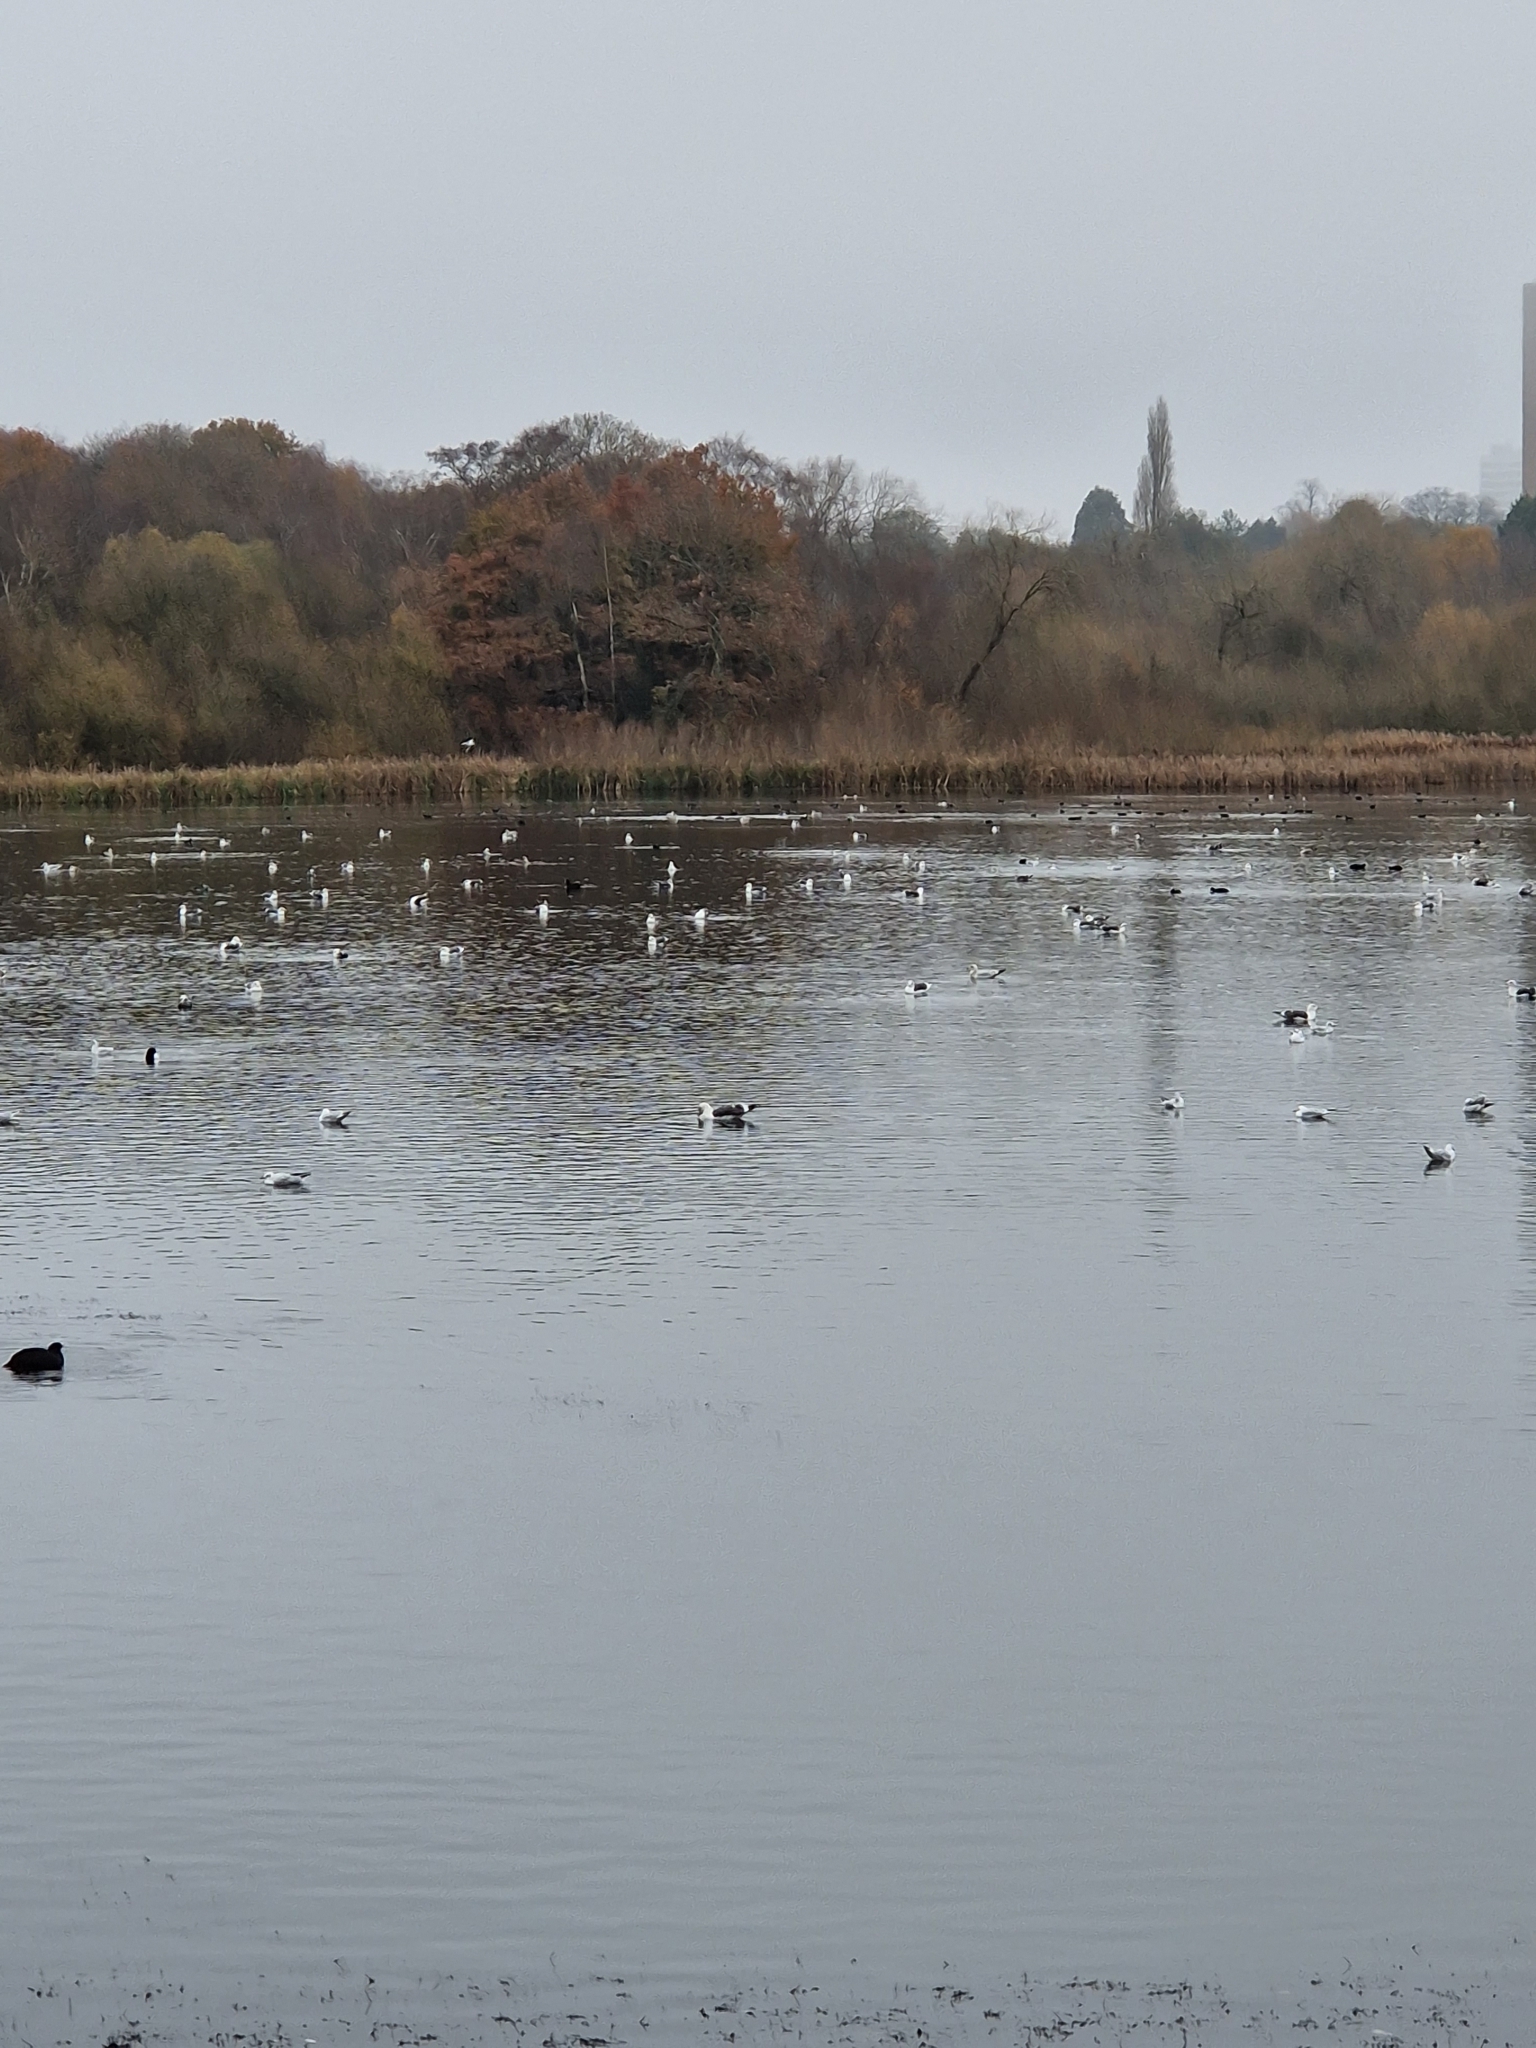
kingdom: Animalia
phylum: Chordata
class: Aves
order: Charadriiformes
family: Laridae
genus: Larus
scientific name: Larus argentatus
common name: Herring gull
